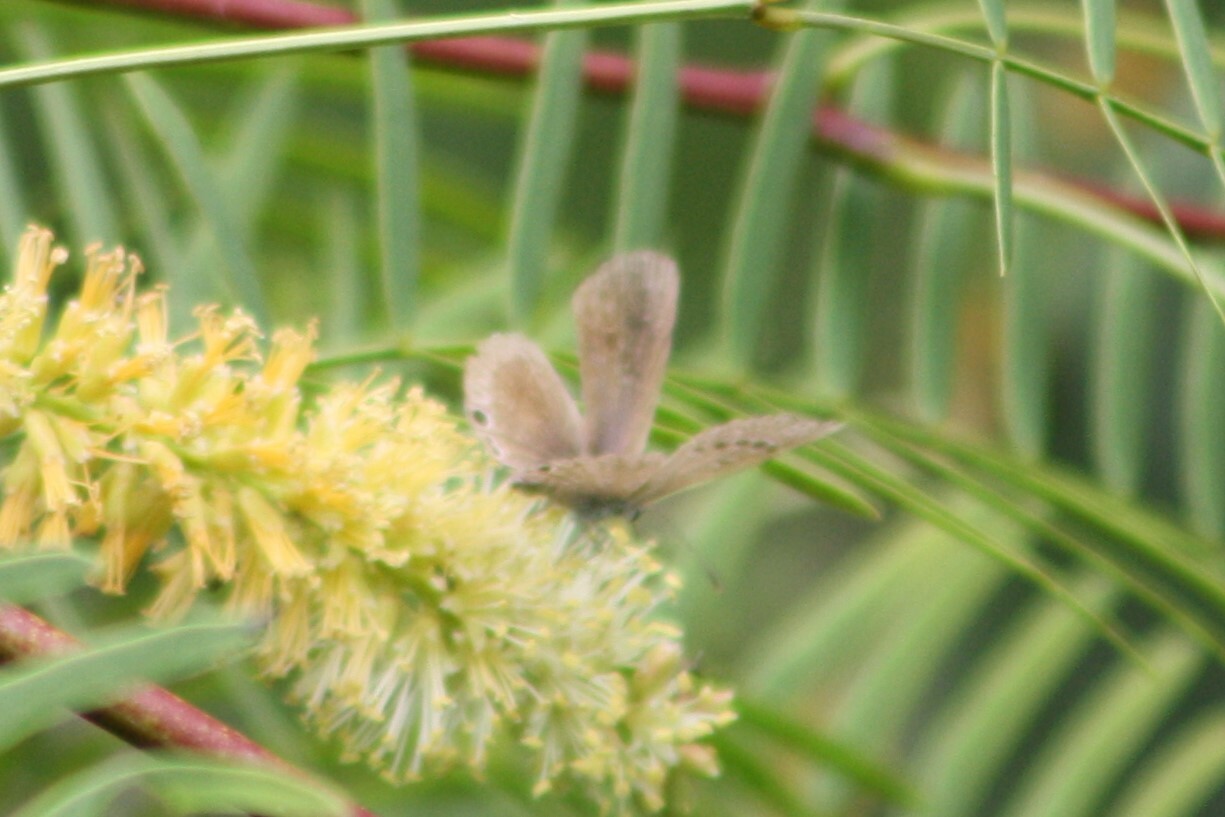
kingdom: Animalia
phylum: Arthropoda
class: Insecta
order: Lepidoptera
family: Lycaenidae
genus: Echinargus
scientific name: Echinargus isola
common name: Reakirt's blue
